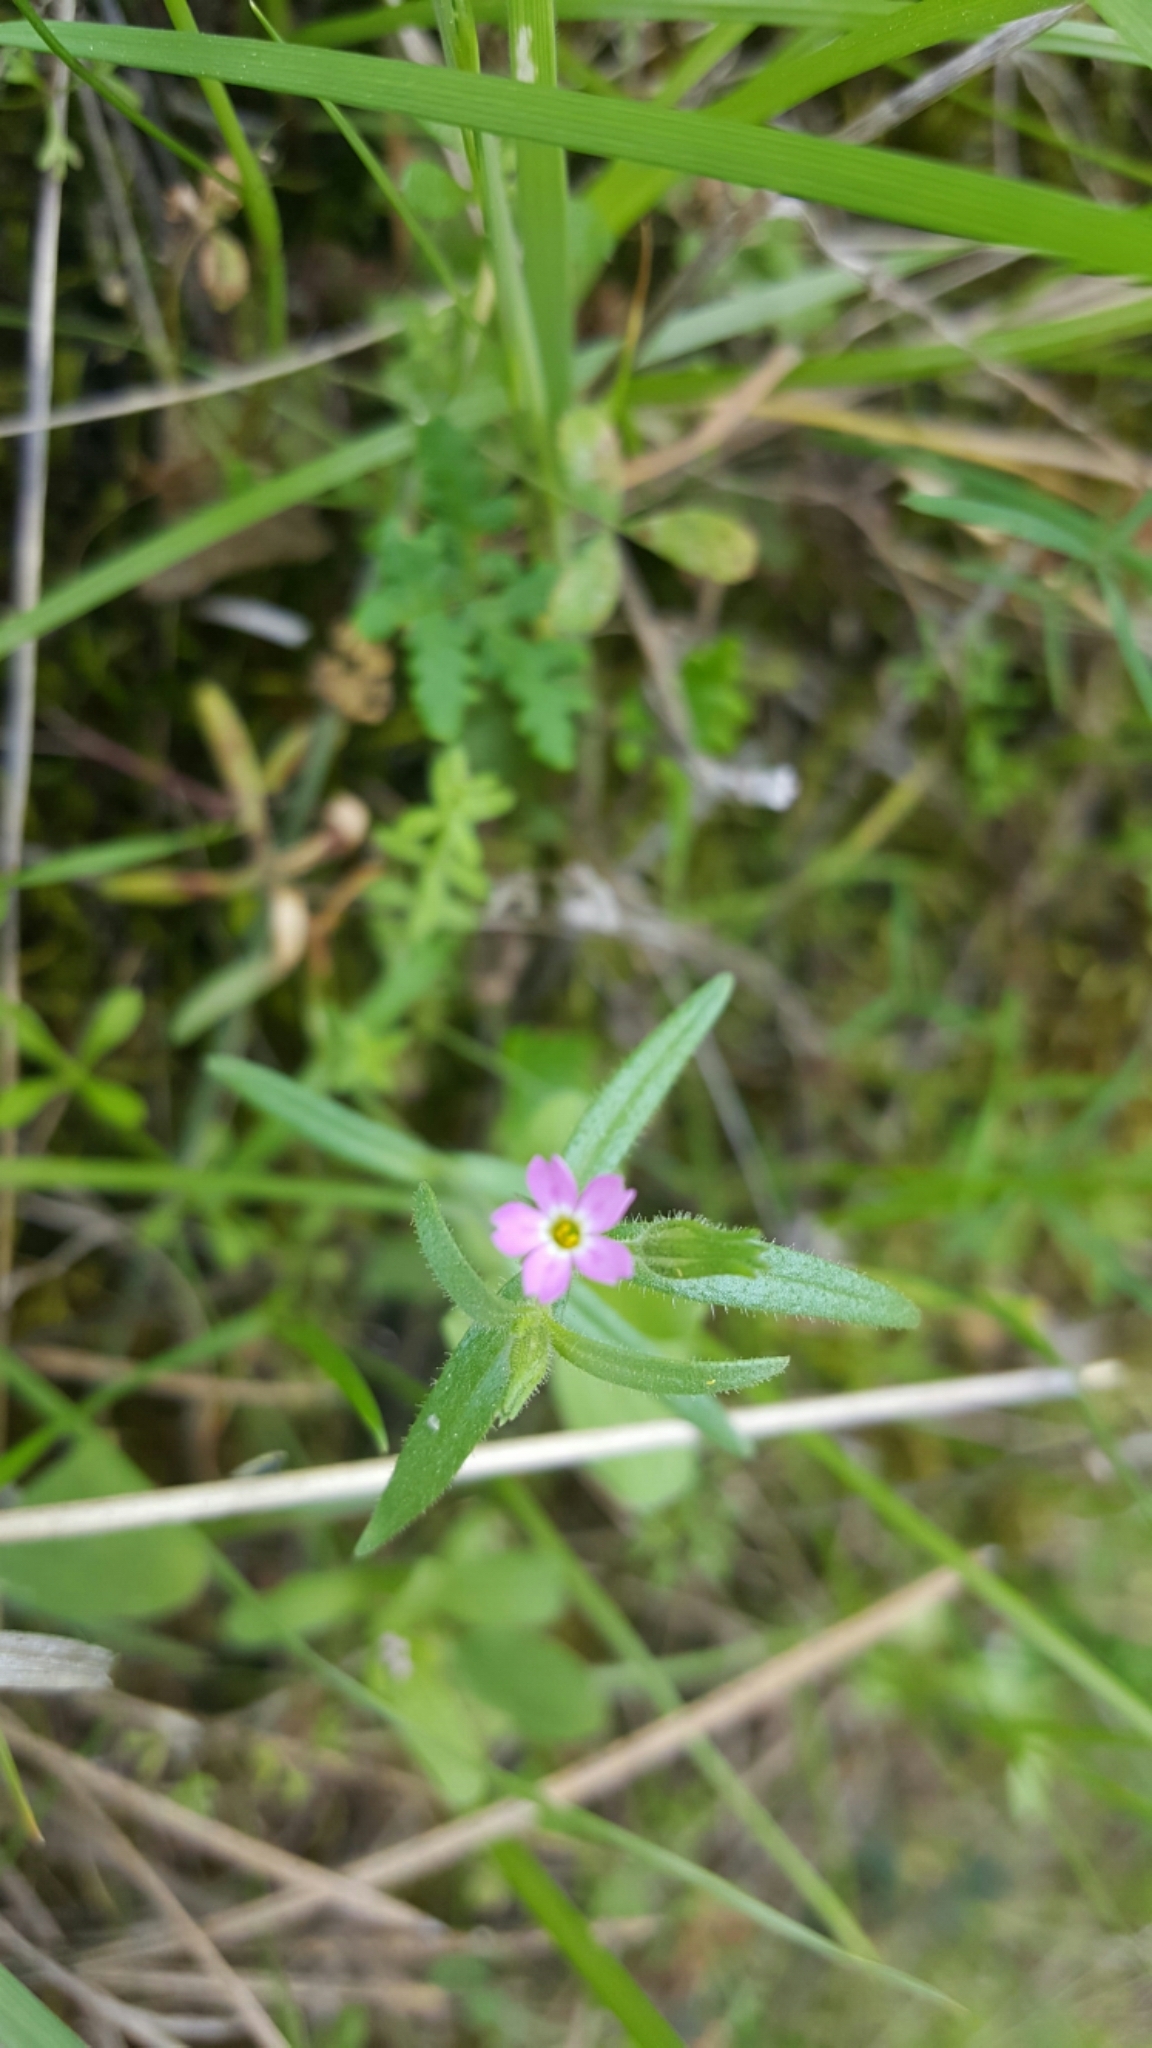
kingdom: Plantae
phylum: Tracheophyta
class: Magnoliopsida
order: Ericales
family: Polemoniaceae
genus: Phlox
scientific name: Phlox gracilis
